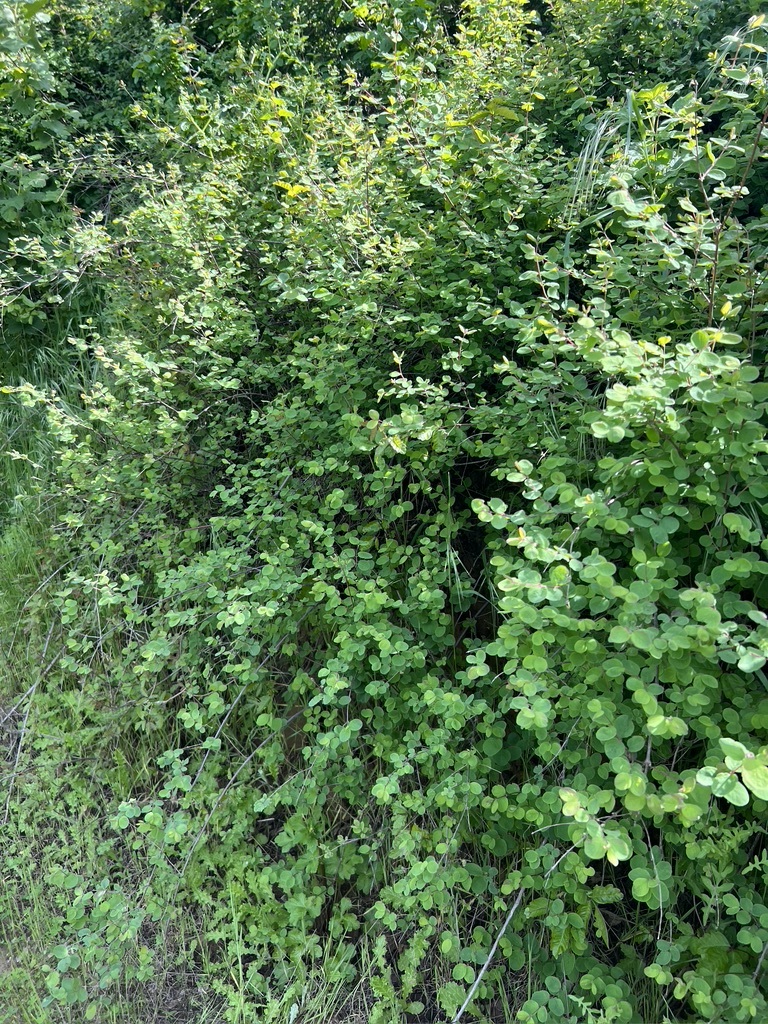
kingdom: Plantae
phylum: Tracheophyta
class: Magnoliopsida
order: Dipsacales
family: Caprifoliaceae
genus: Symphoricarpos
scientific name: Symphoricarpos mollis
